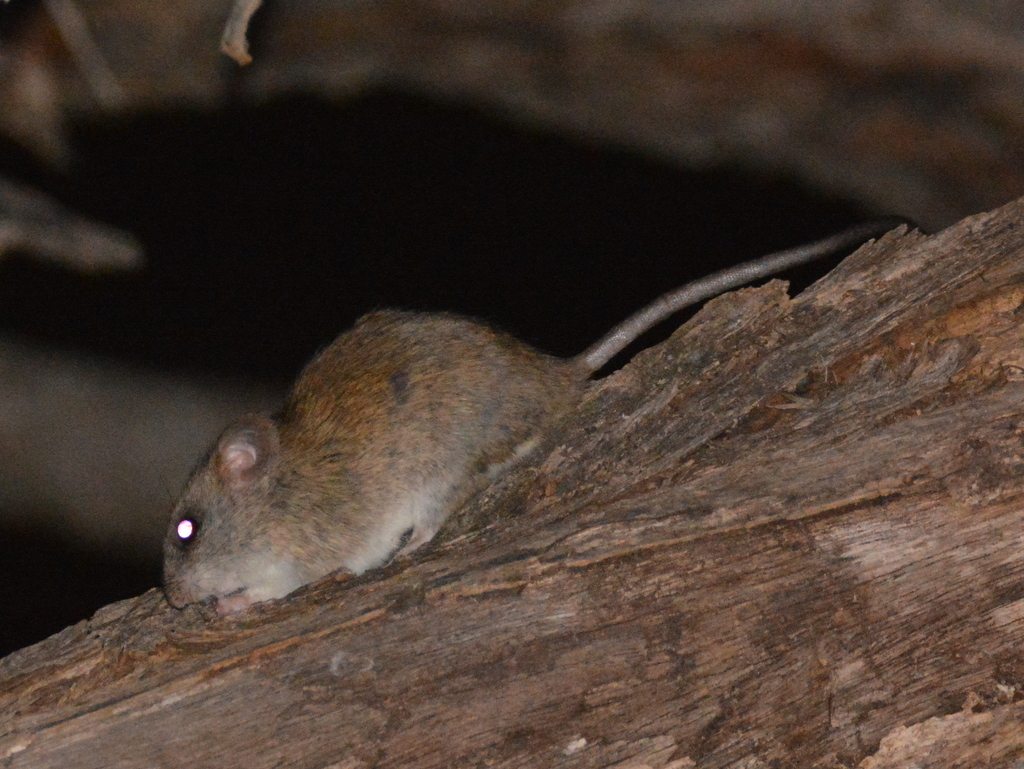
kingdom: Animalia
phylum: Chordata
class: Mammalia
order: Rodentia
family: Muridae
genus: Thallomys
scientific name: Thallomys paedulcus
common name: Acacia thallomys
